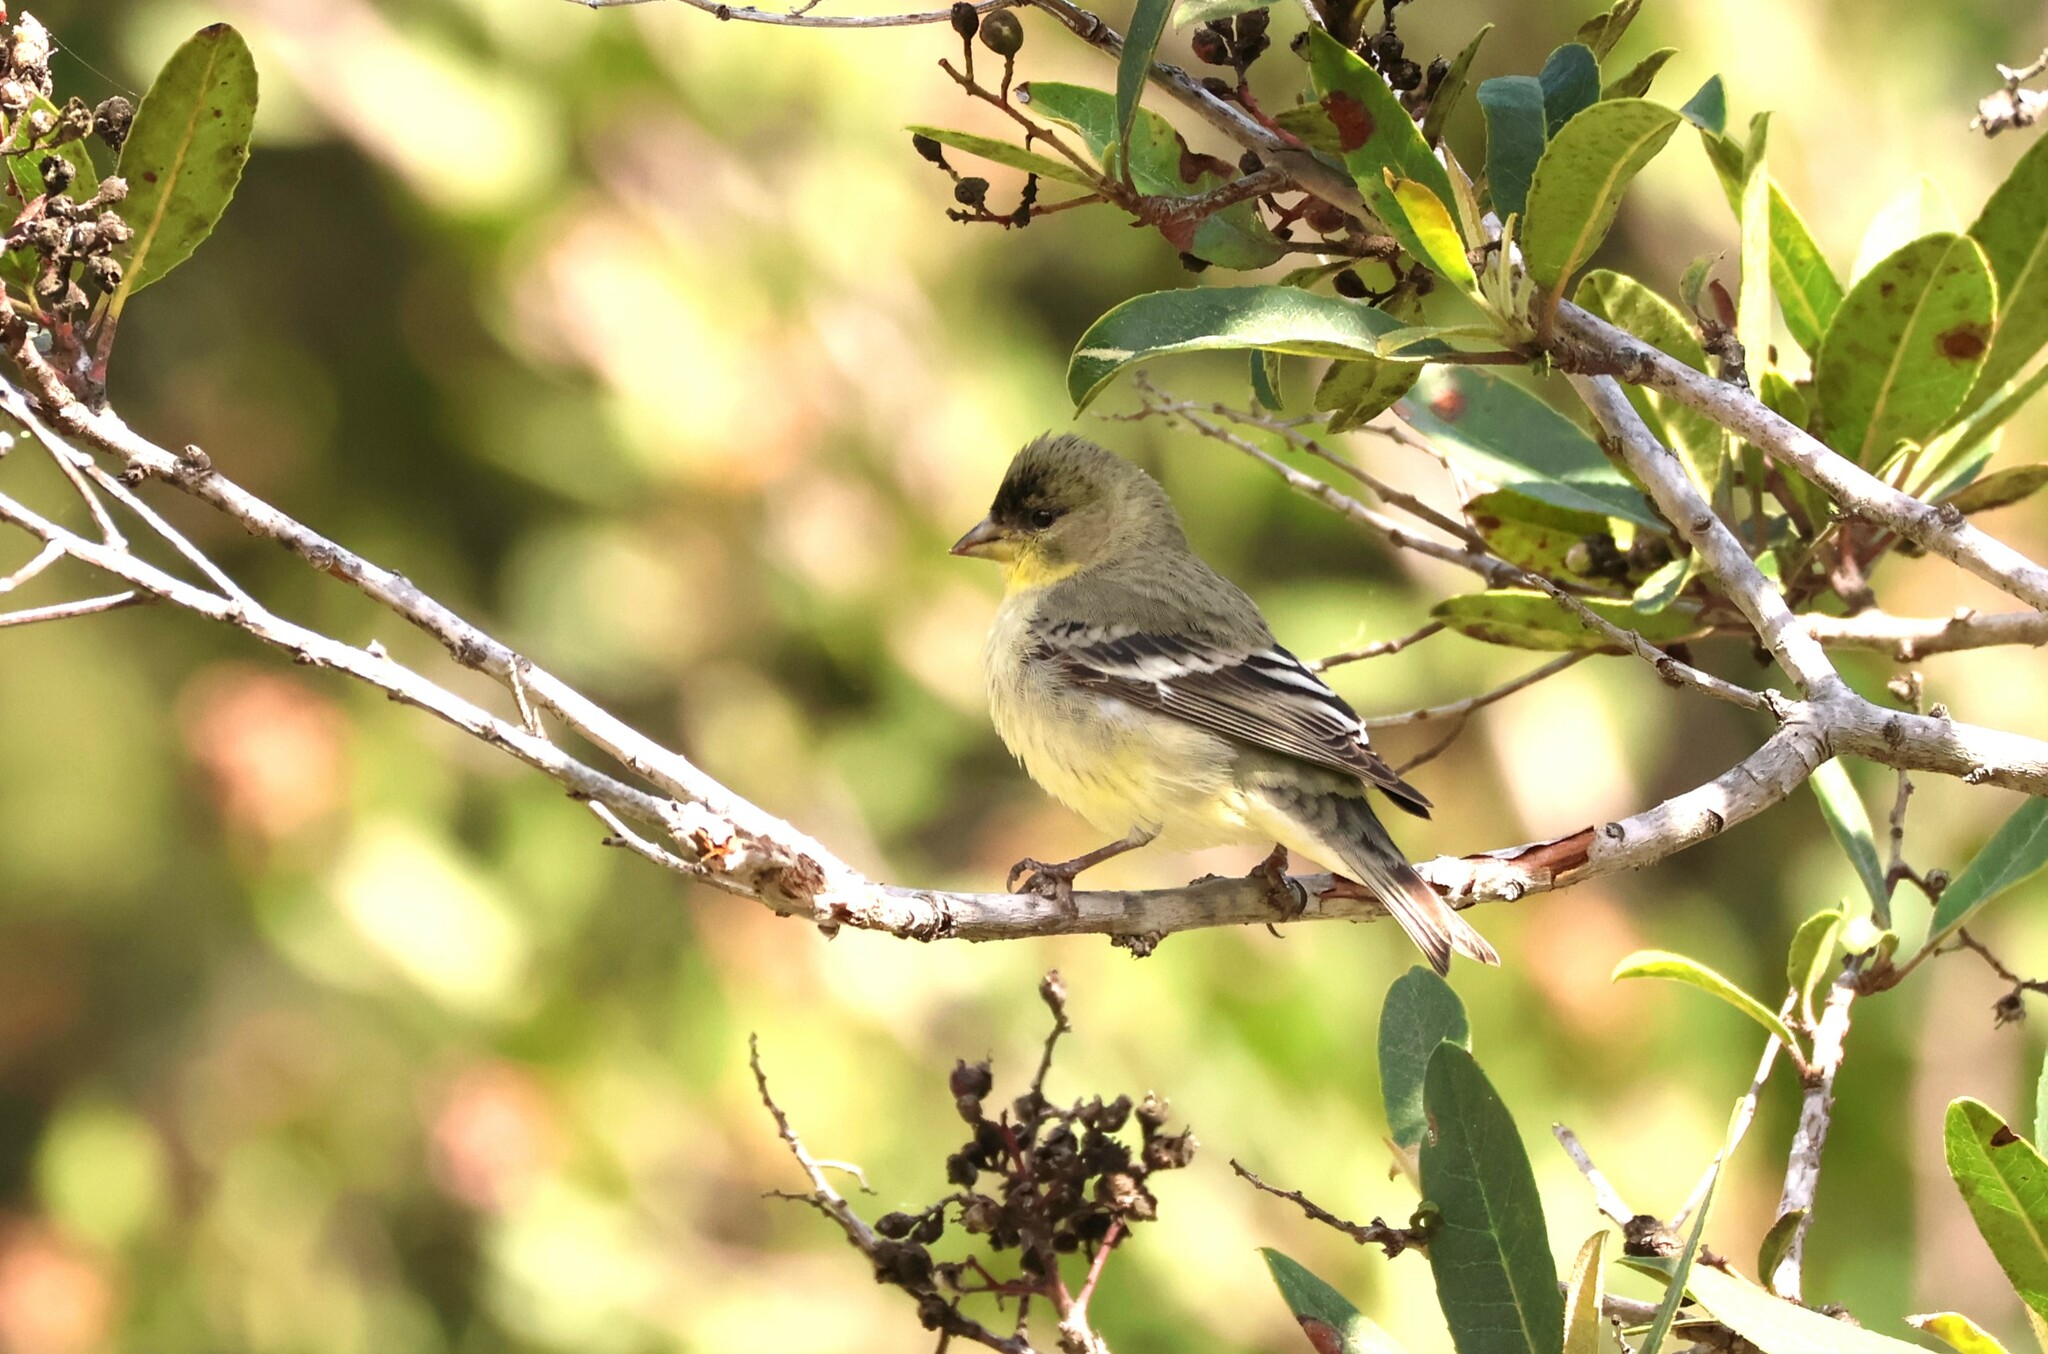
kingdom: Animalia
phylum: Chordata
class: Aves
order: Passeriformes
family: Fringillidae
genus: Spinus
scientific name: Spinus psaltria
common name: Lesser goldfinch
